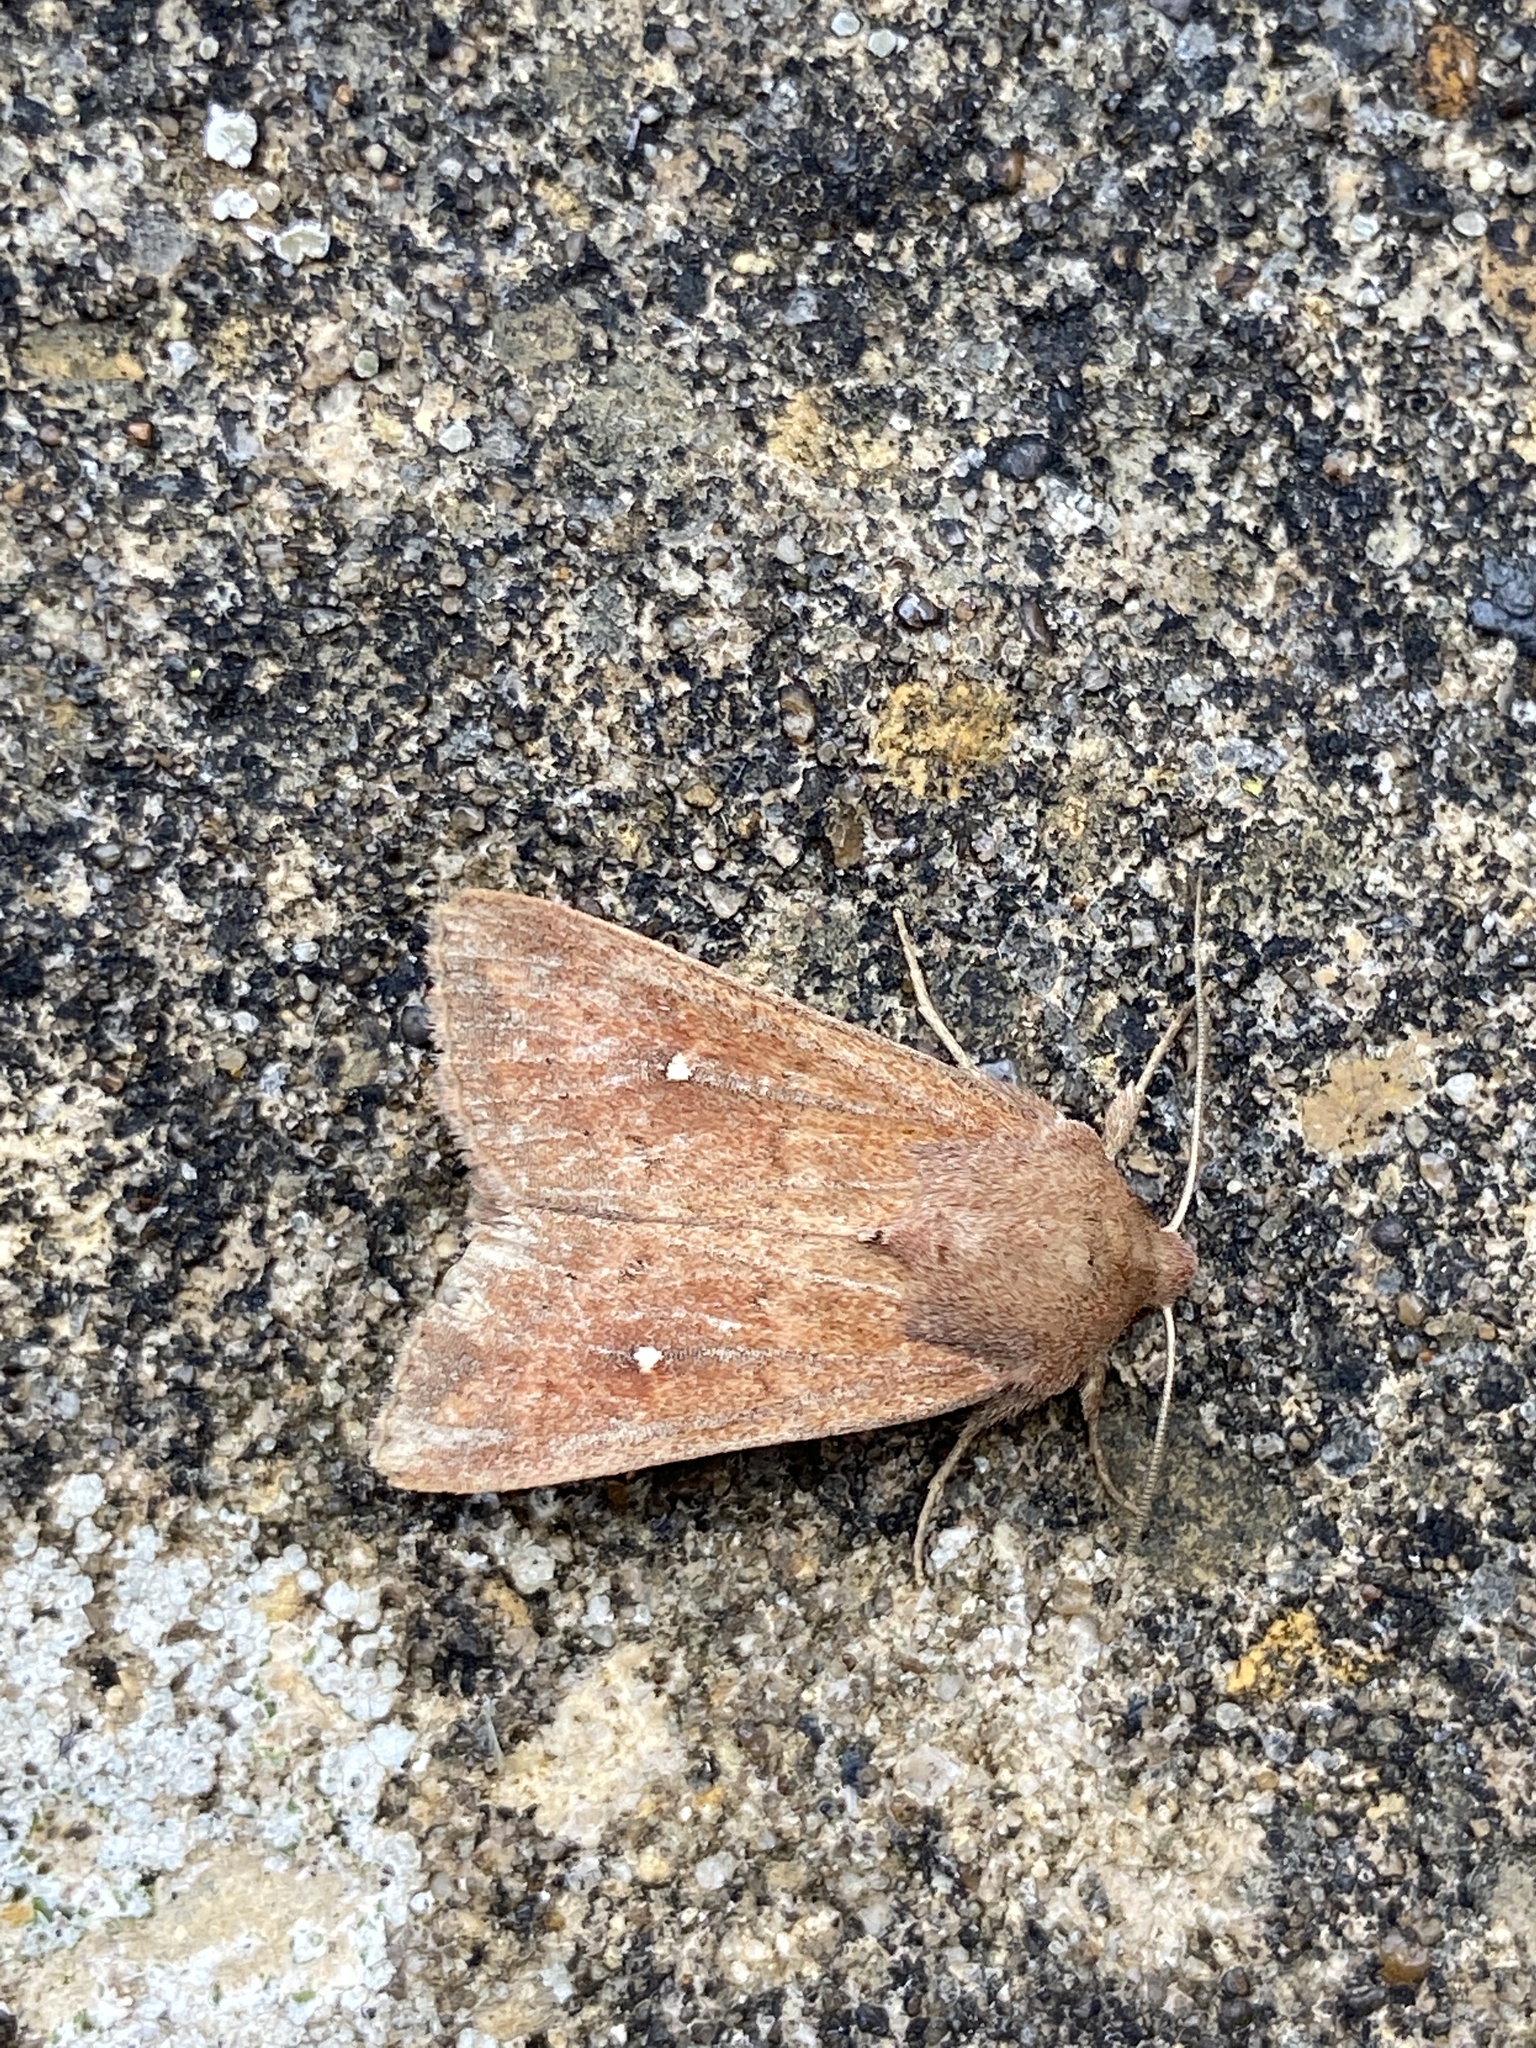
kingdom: Animalia
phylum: Arthropoda
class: Insecta
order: Lepidoptera
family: Noctuidae
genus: Mythimna
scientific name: Mythimna albipuncta
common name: White-point
